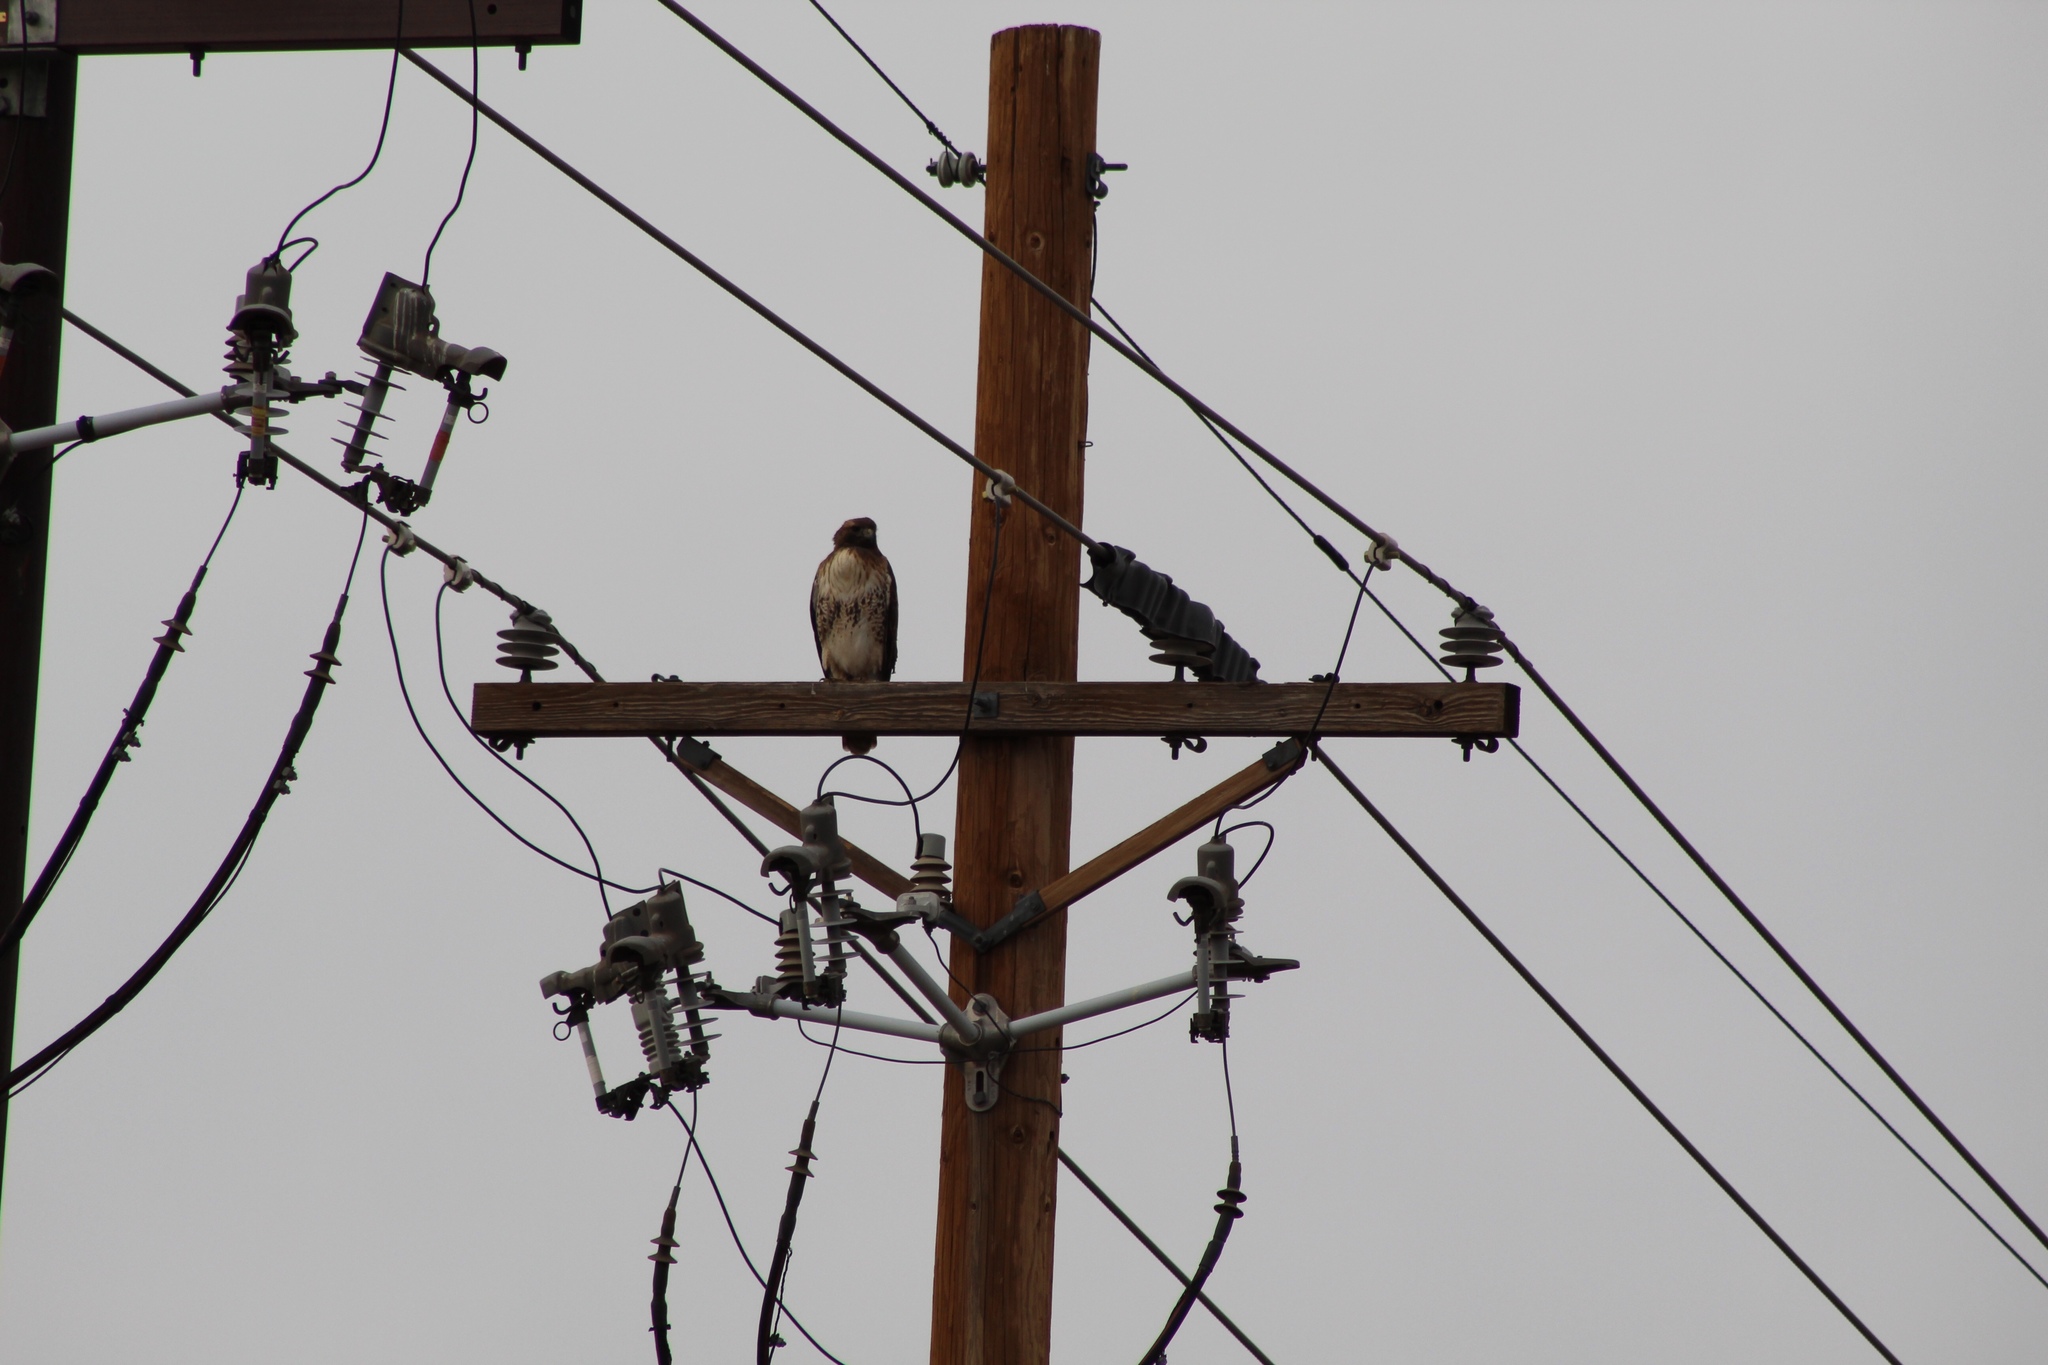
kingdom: Animalia
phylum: Chordata
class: Aves
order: Accipitriformes
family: Accipitridae
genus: Buteo
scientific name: Buteo jamaicensis
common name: Red-tailed hawk
